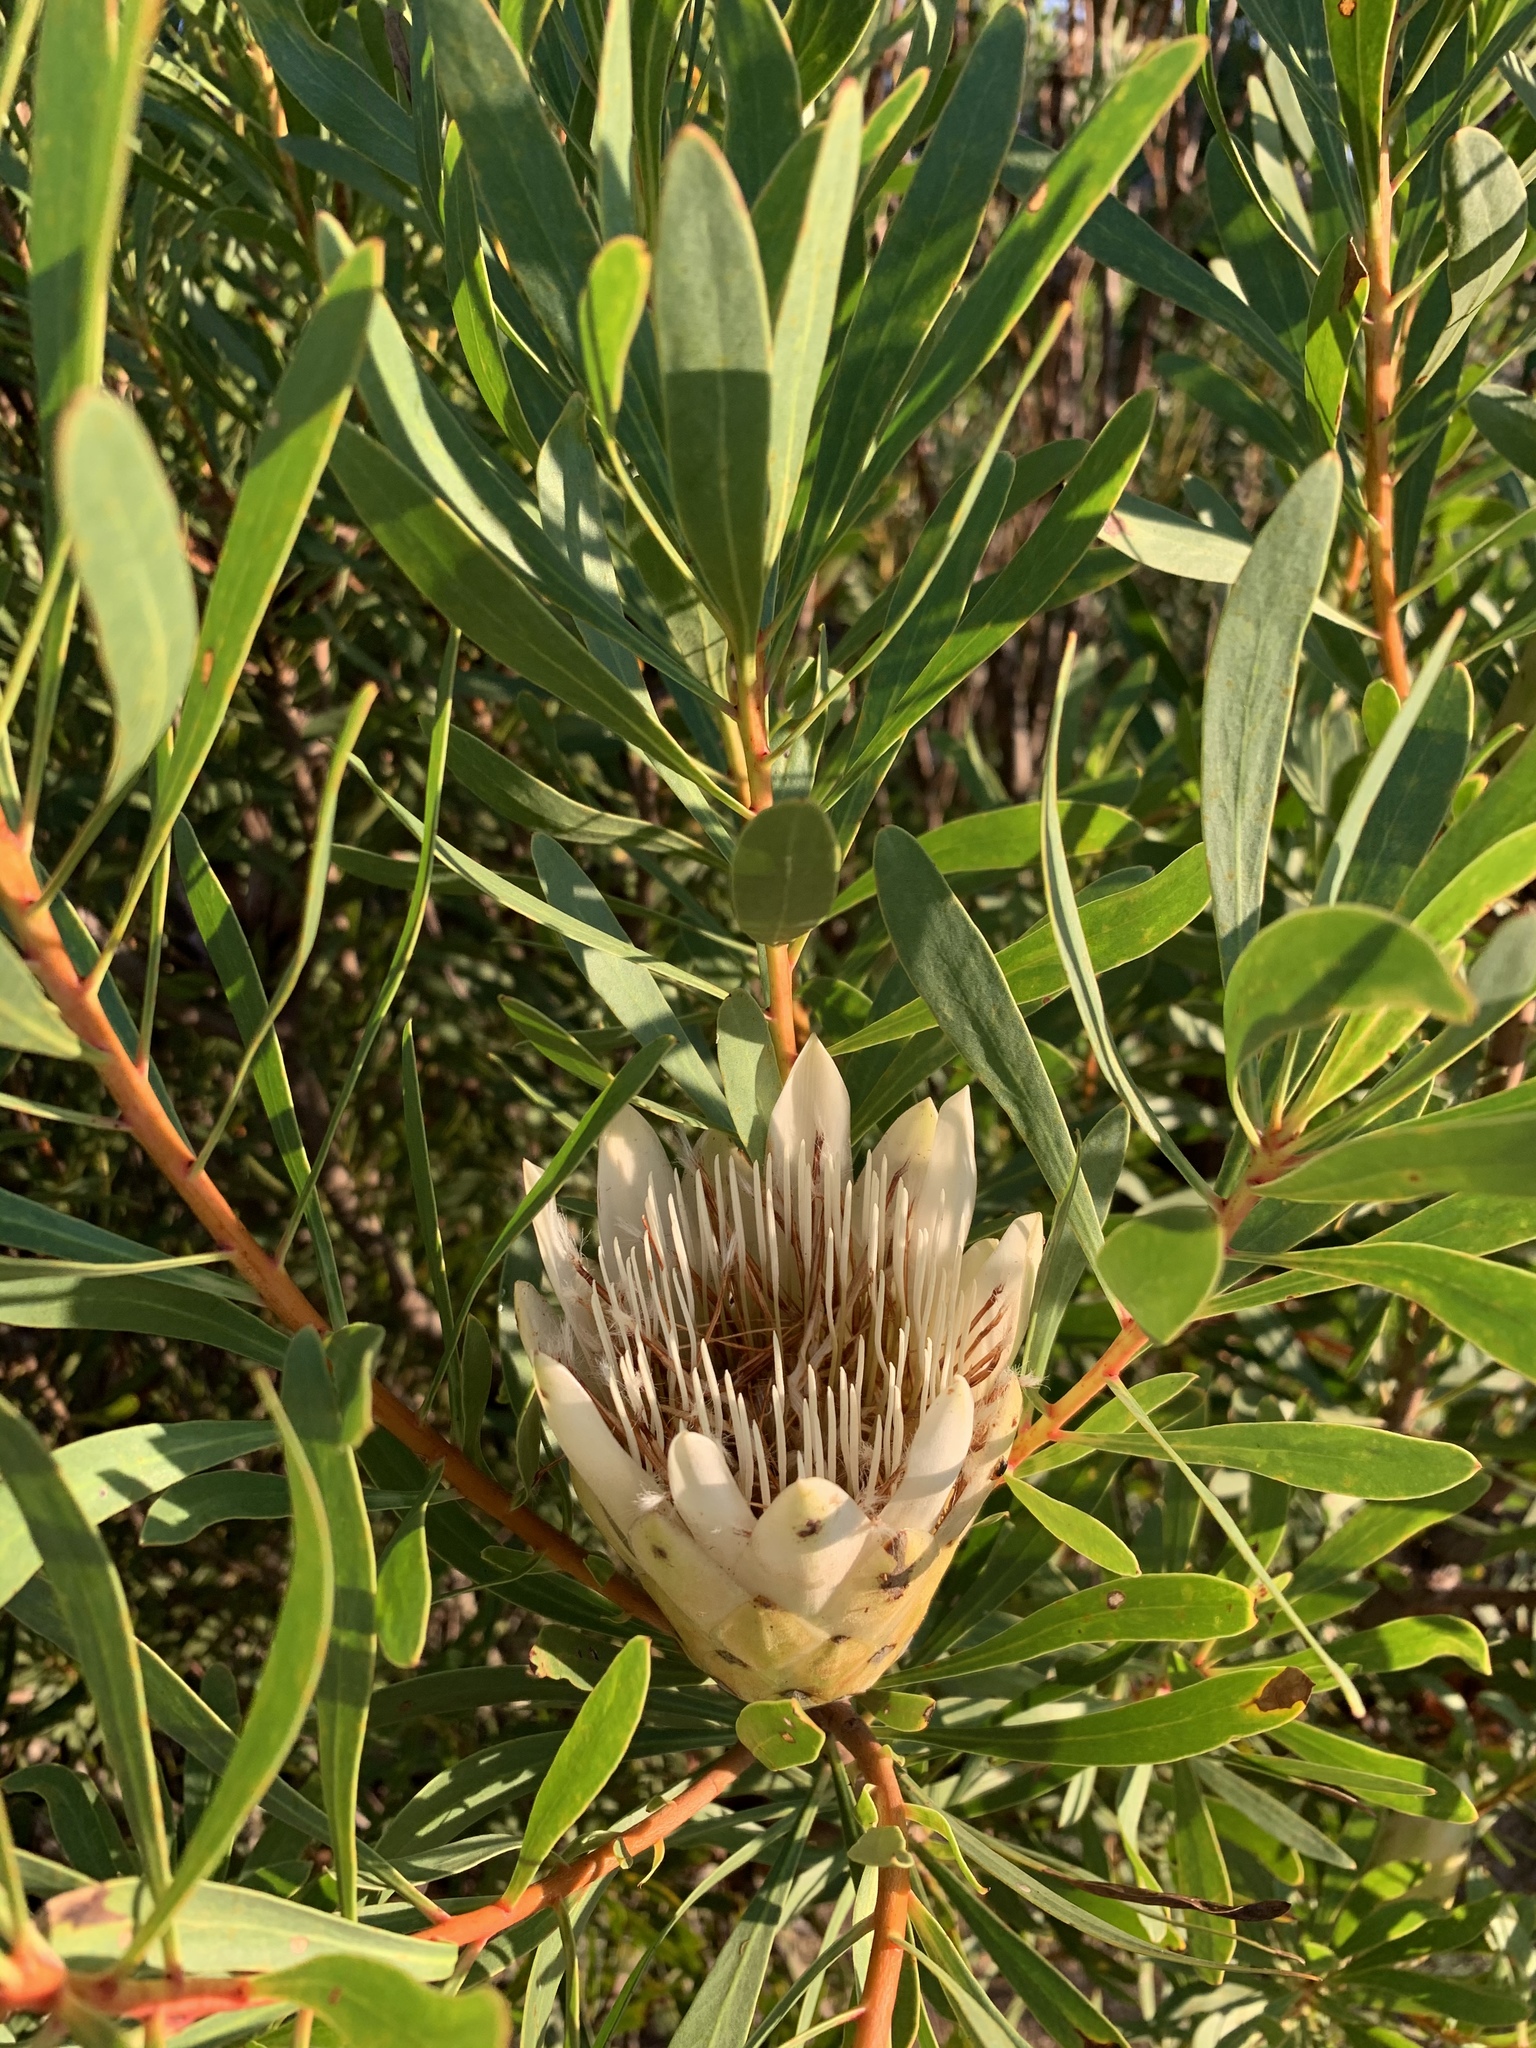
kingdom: Plantae
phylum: Tracheophyta
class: Magnoliopsida
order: Proteales
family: Proteaceae
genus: Protea
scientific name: Protea repens
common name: Sugarbush
